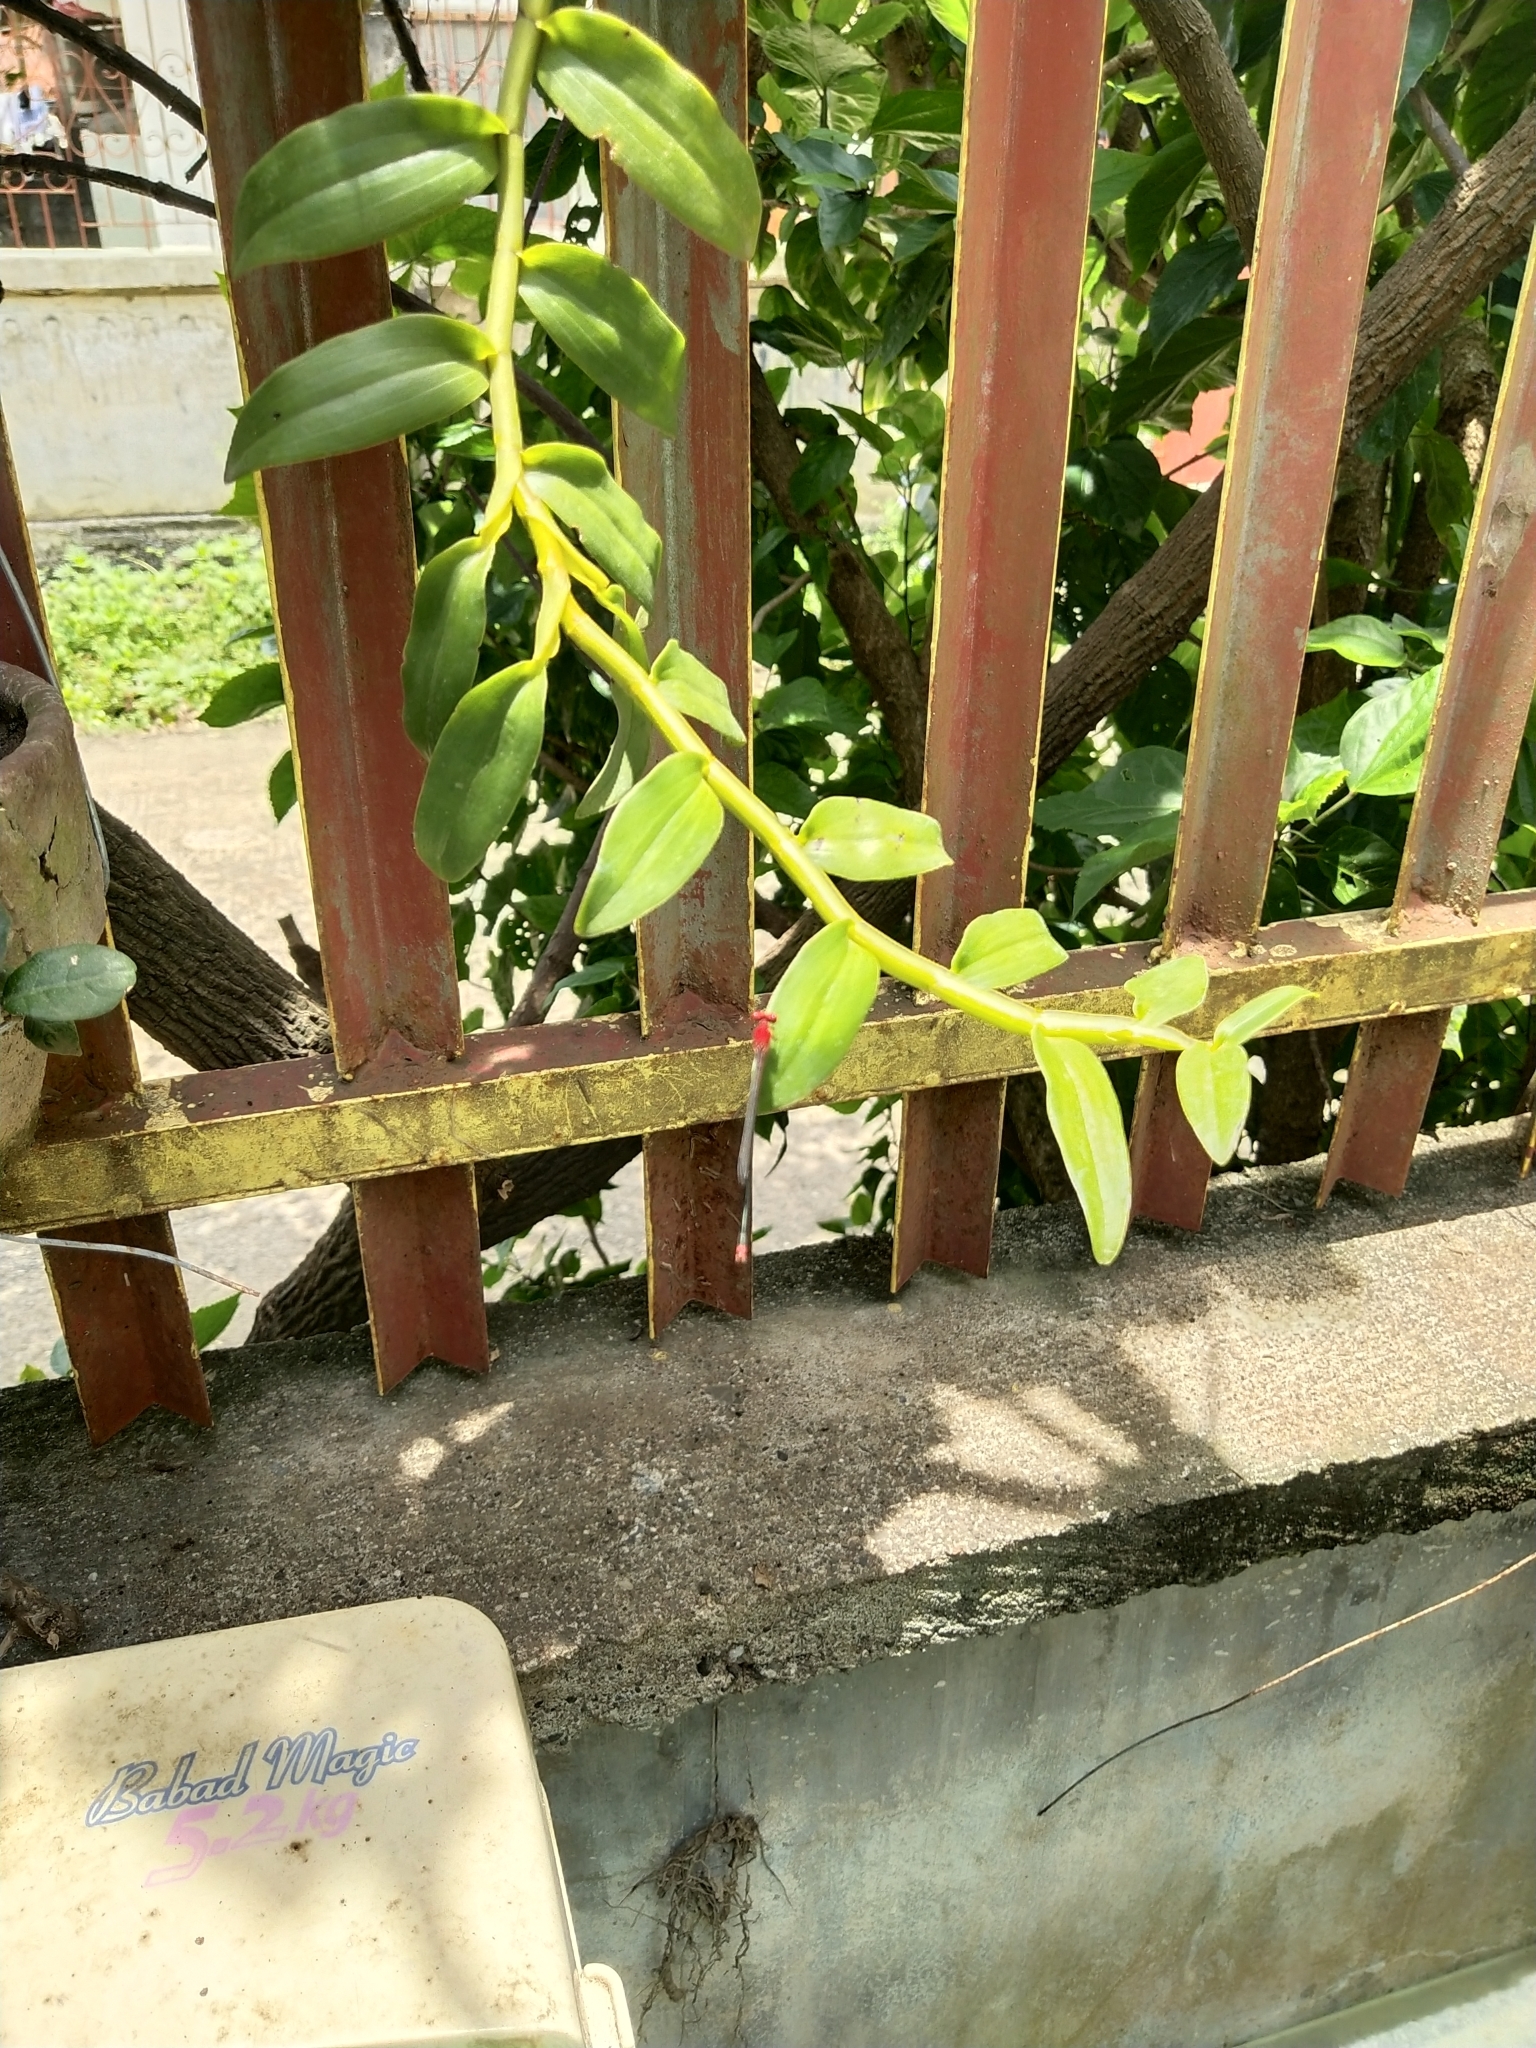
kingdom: Animalia
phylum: Arthropoda
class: Insecta
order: Odonata
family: Coenagrionidae
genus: Pseudagrion
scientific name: Pseudagrion pilidorsum
